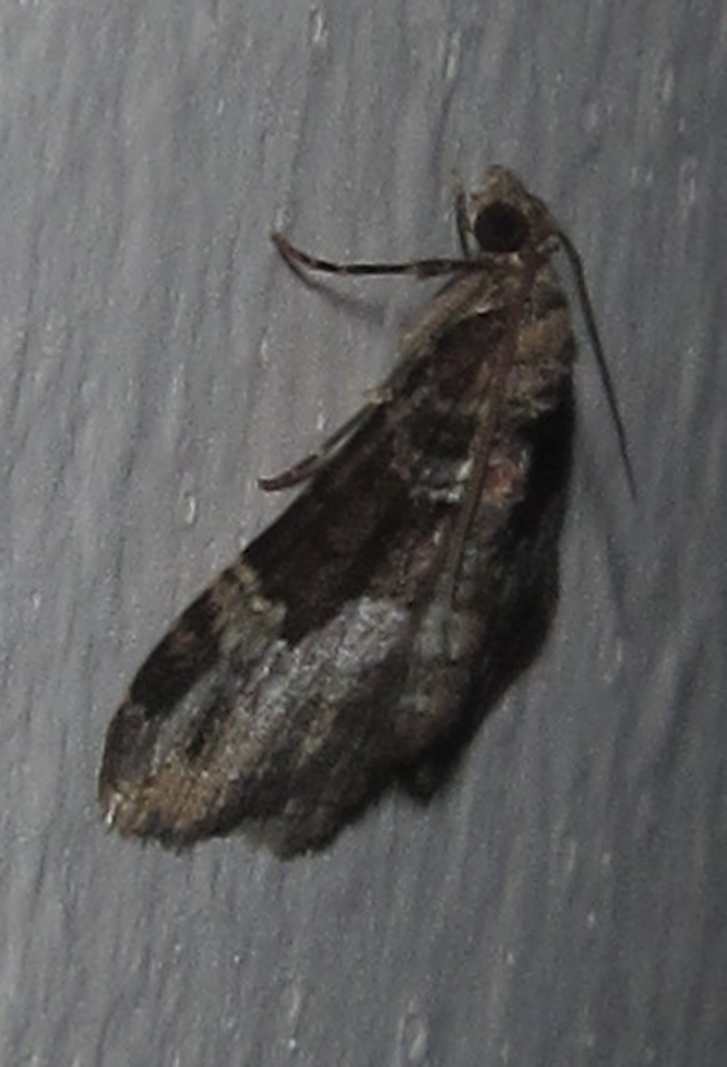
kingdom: Animalia
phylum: Arthropoda
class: Insecta
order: Lepidoptera
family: Geometridae
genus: Xanthorhoe
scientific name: Xanthorhoe poseata
